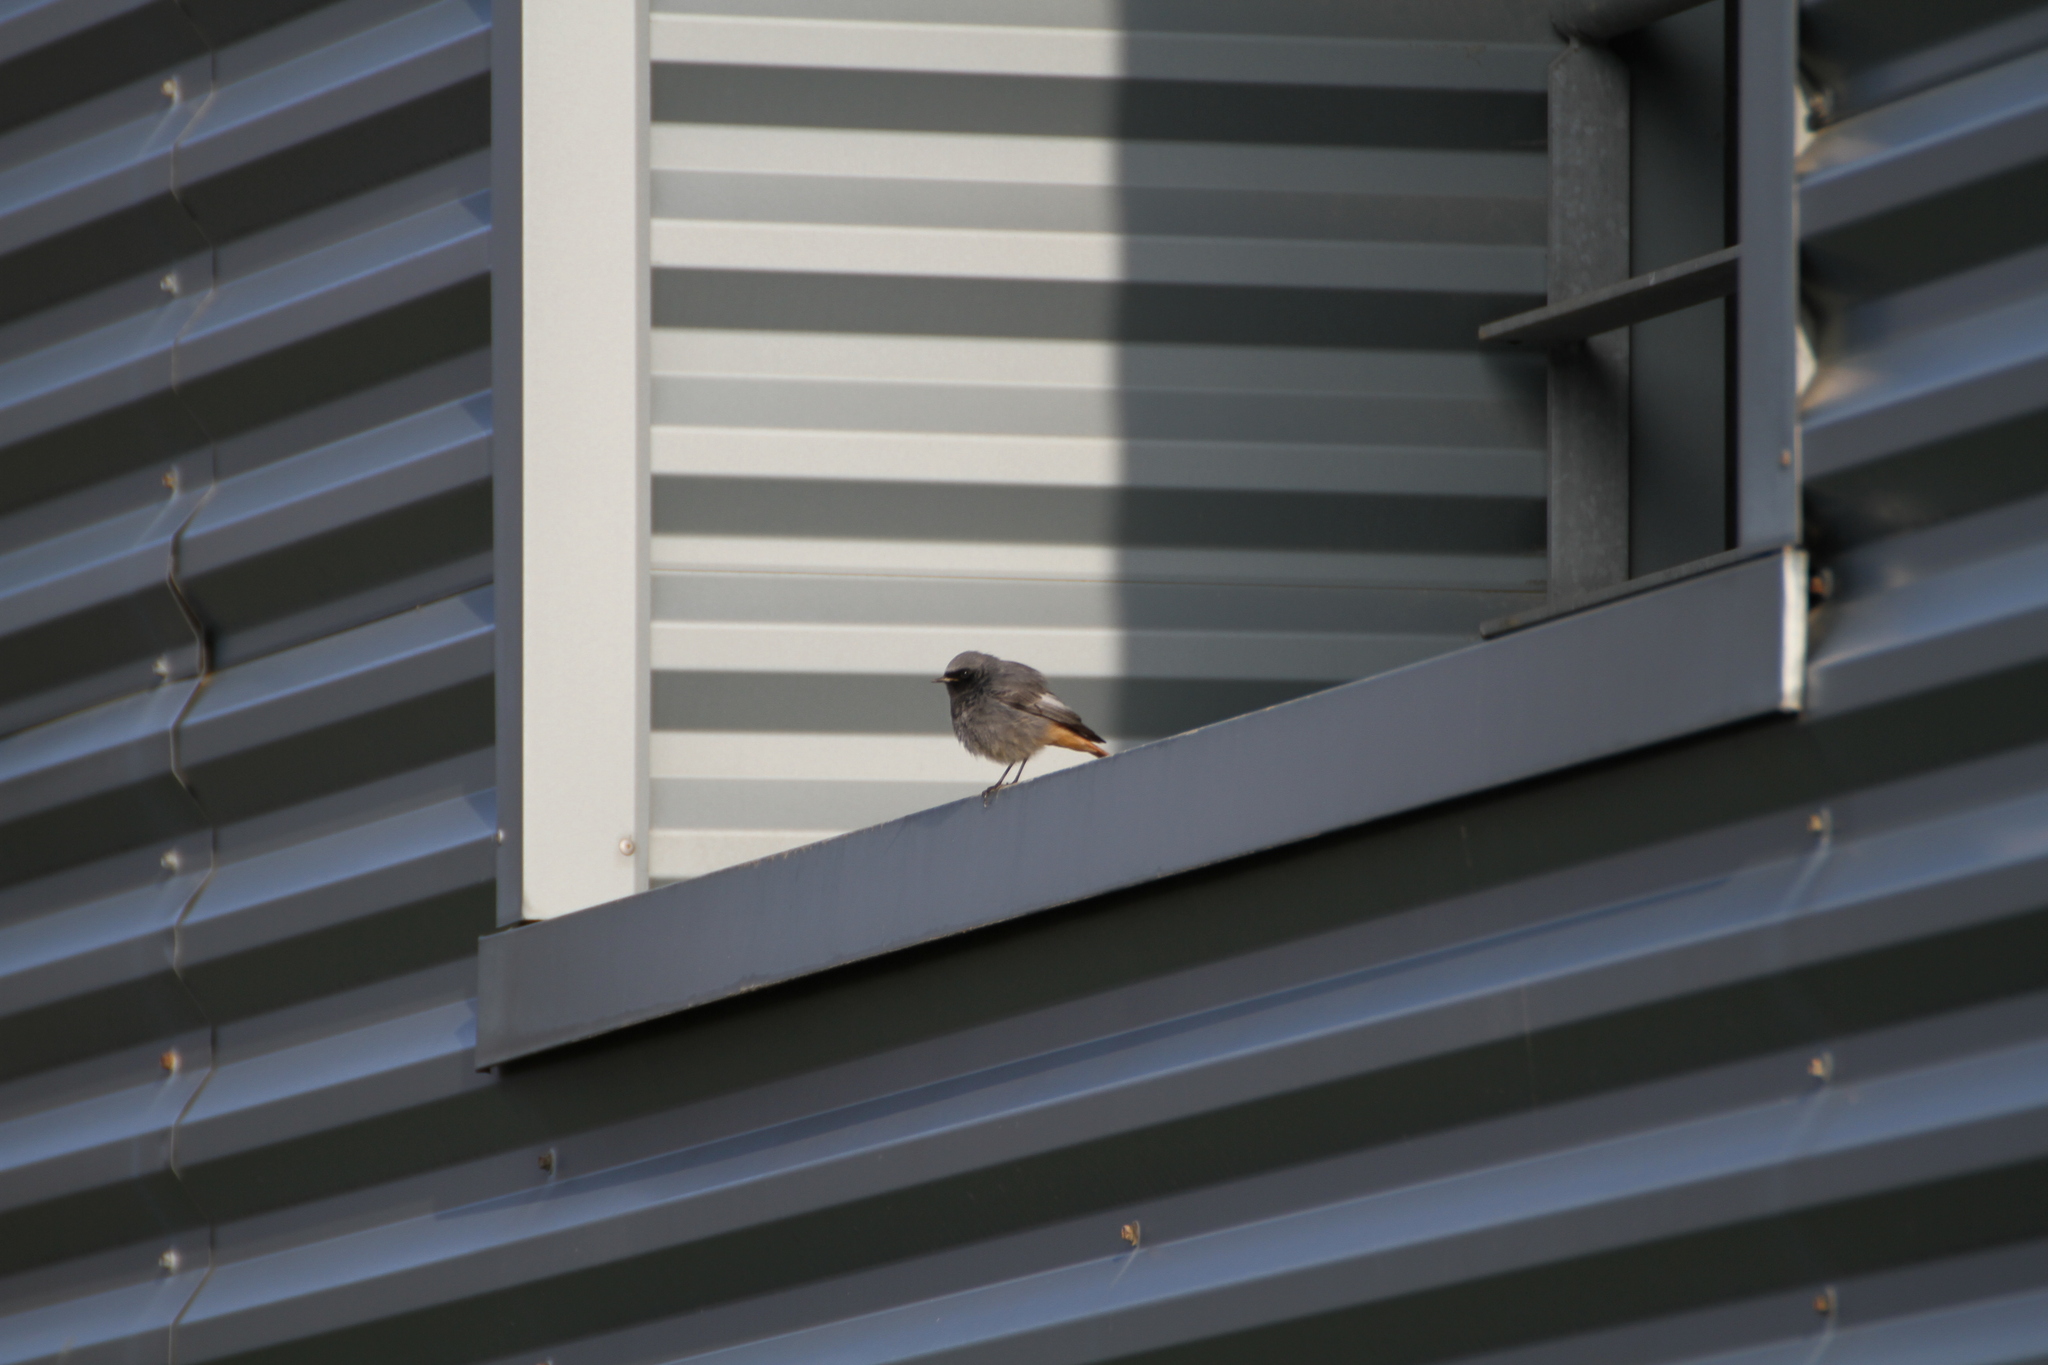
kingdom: Animalia
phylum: Chordata
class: Aves
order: Passeriformes
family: Muscicapidae
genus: Phoenicurus
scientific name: Phoenicurus ochruros
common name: Black redstart
